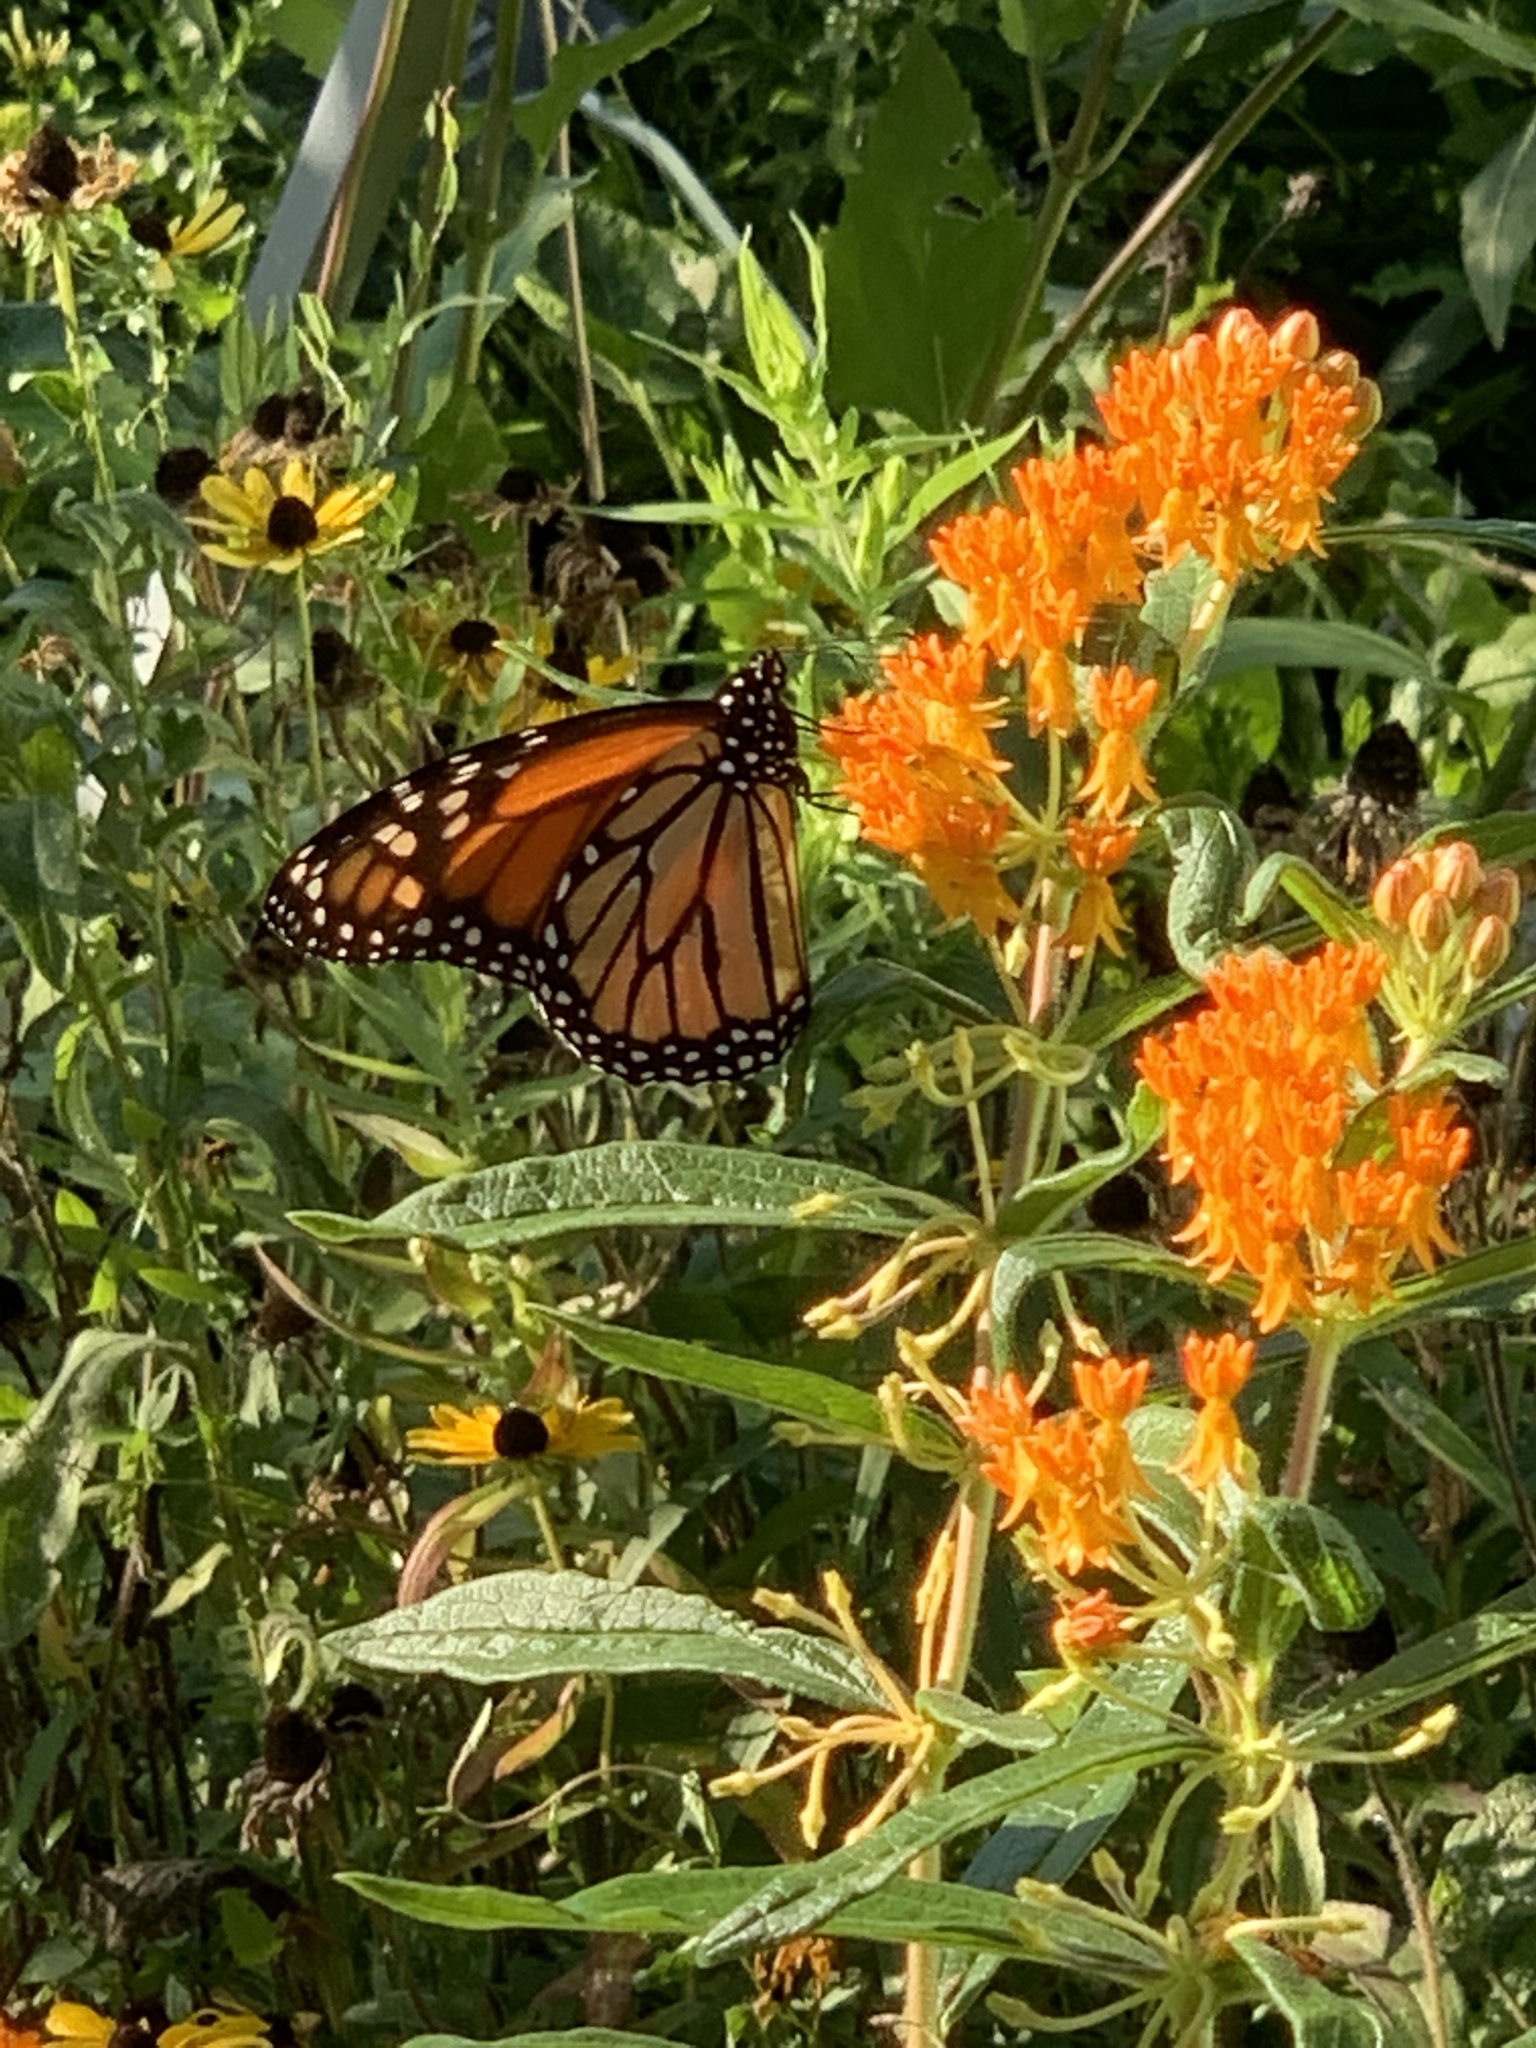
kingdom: Animalia
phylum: Arthropoda
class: Insecta
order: Lepidoptera
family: Nymphalidae
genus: Danaus
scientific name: Danaus plexippus
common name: Monarch
